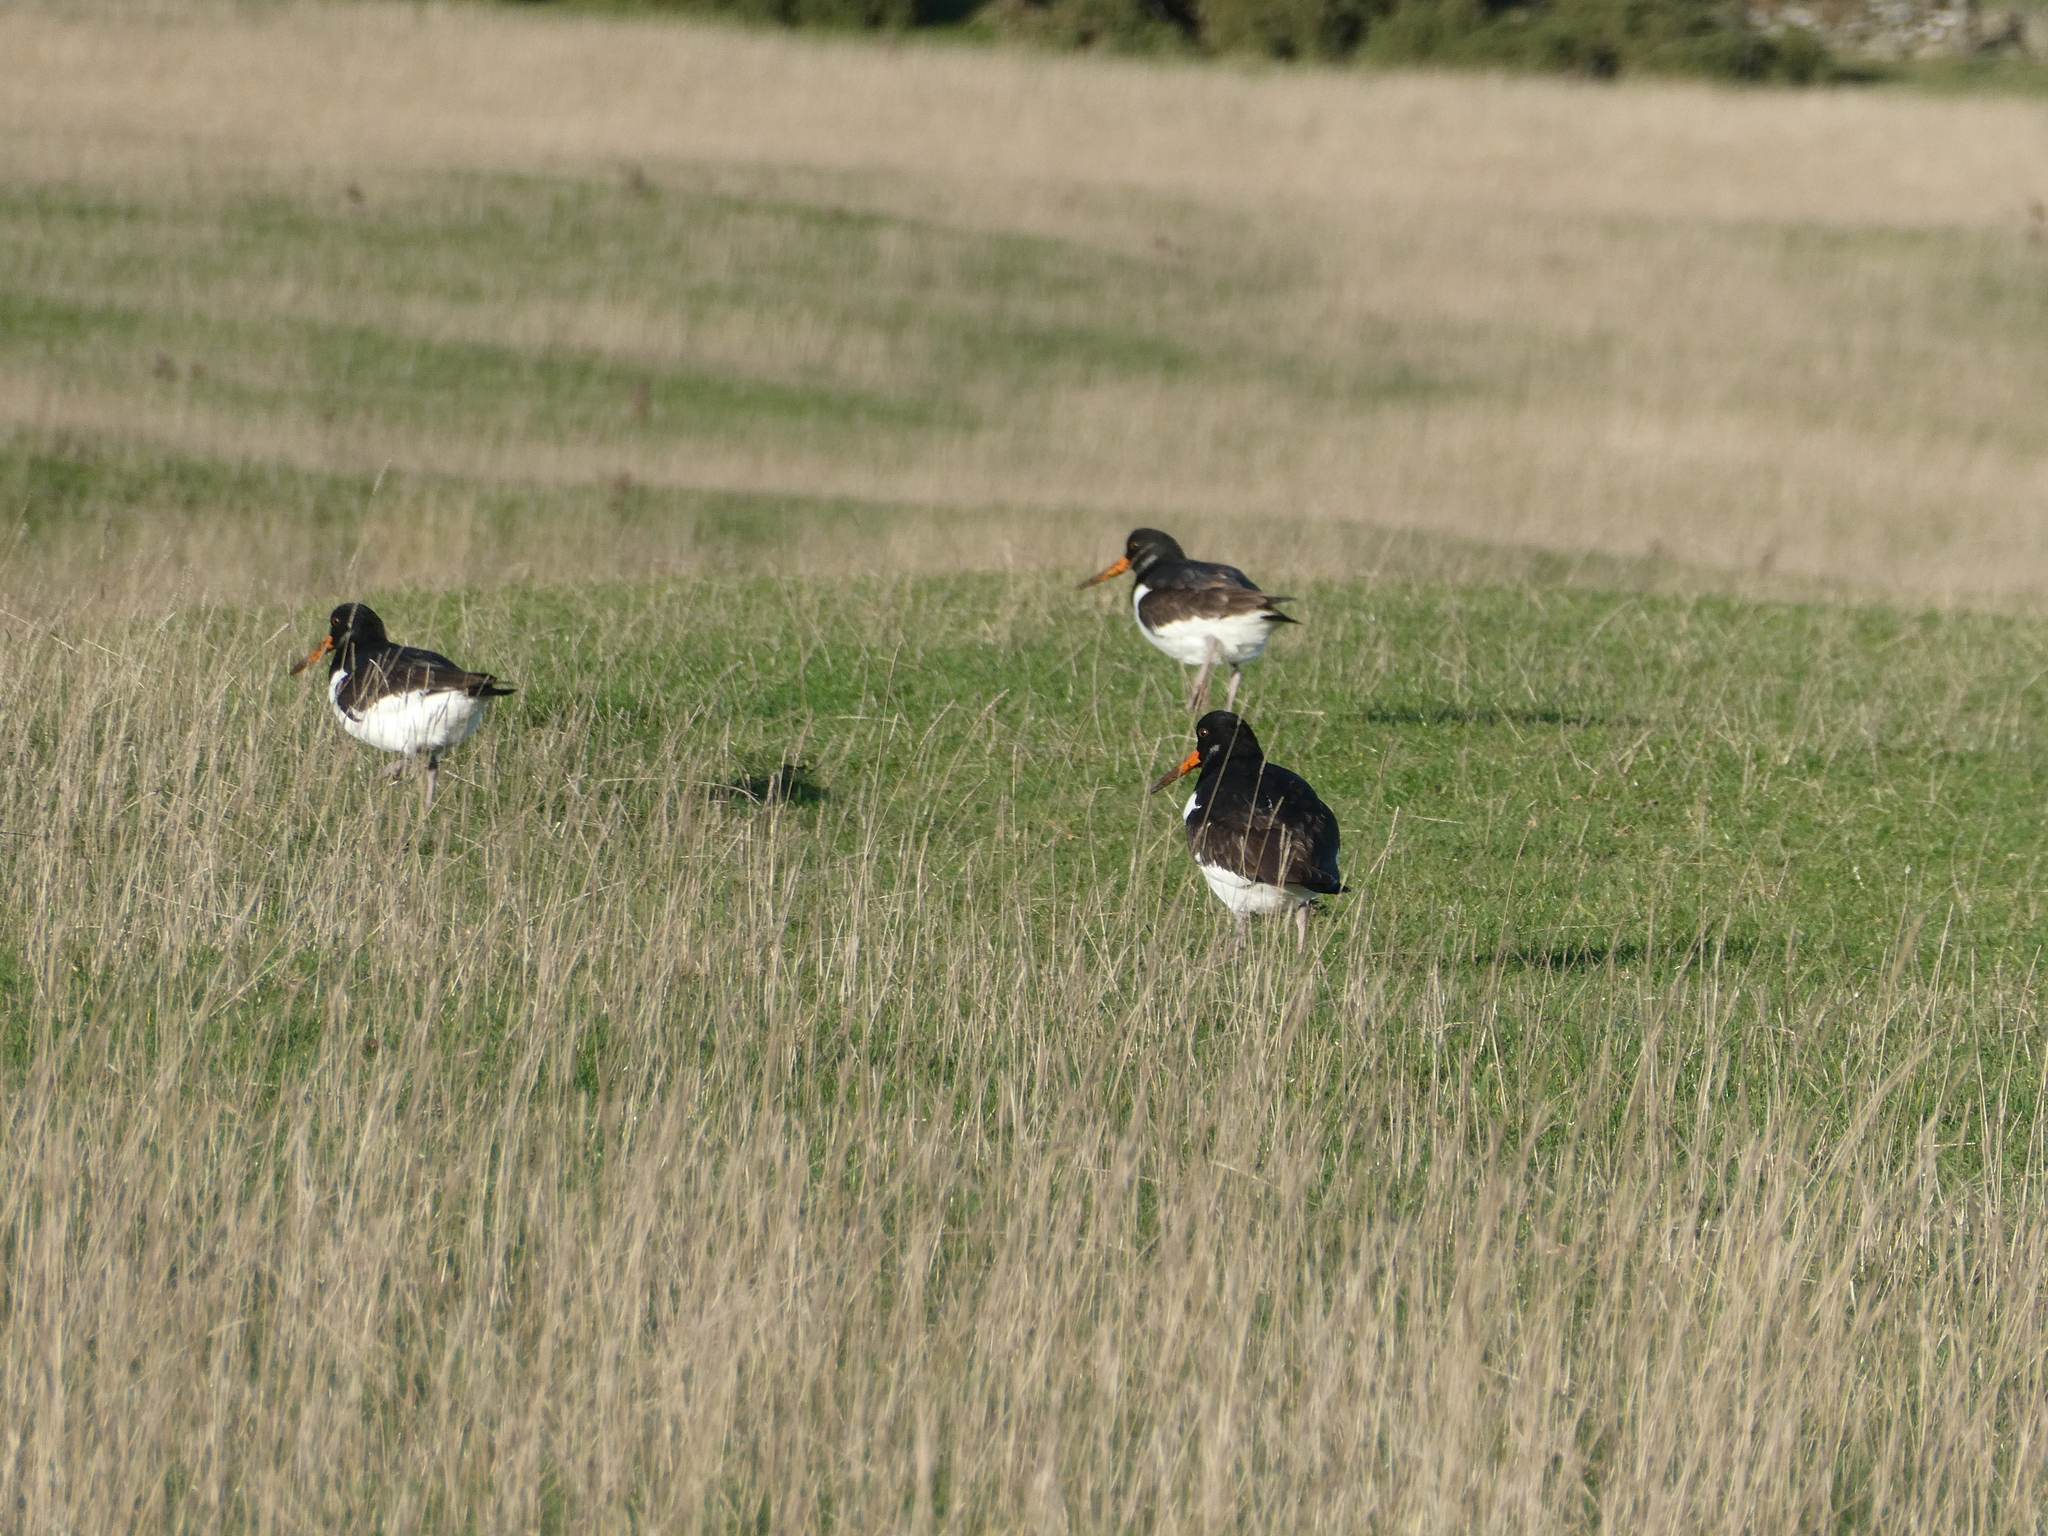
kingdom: Animalia
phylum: Chordata
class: Aves
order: Charadriiformes
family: Haematopodidae
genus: Haematopus
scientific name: Haematopus ostralegus
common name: Eurasian oystercatcher
